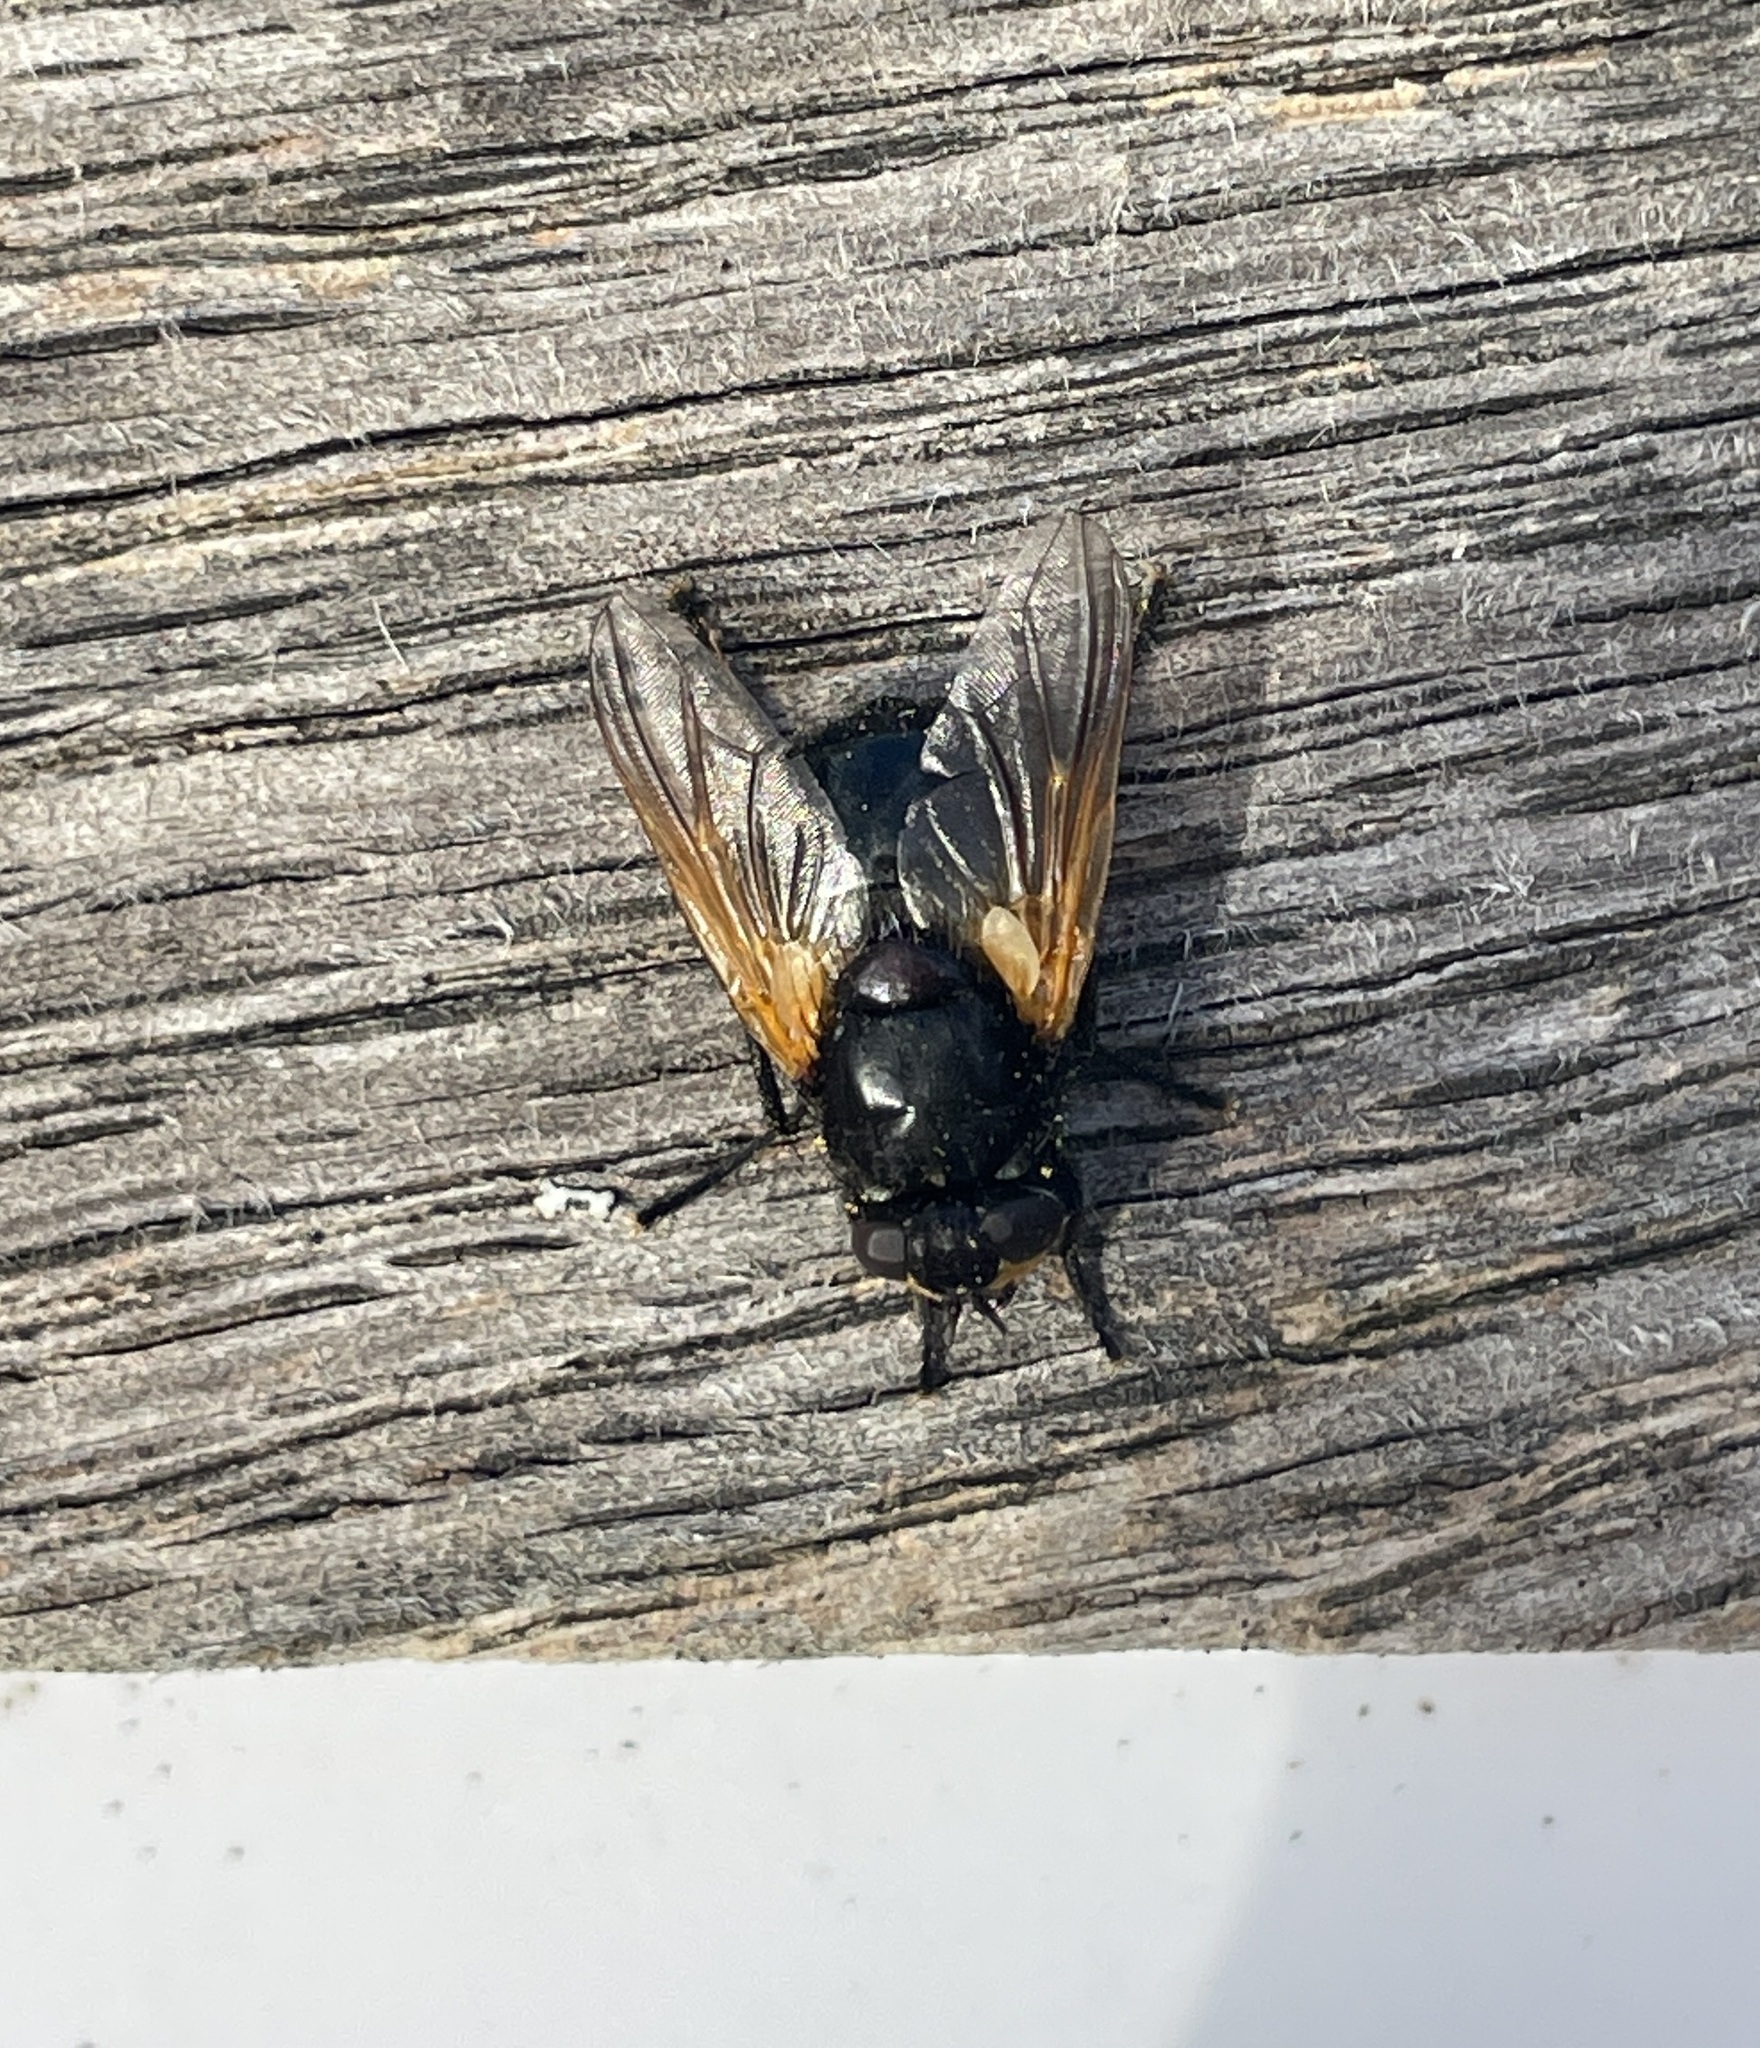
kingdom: Animalia
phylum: Arthropoda
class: Insecta
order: Diptera
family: Muscidae
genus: Mesembrina
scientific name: Mesembrina meridiana
